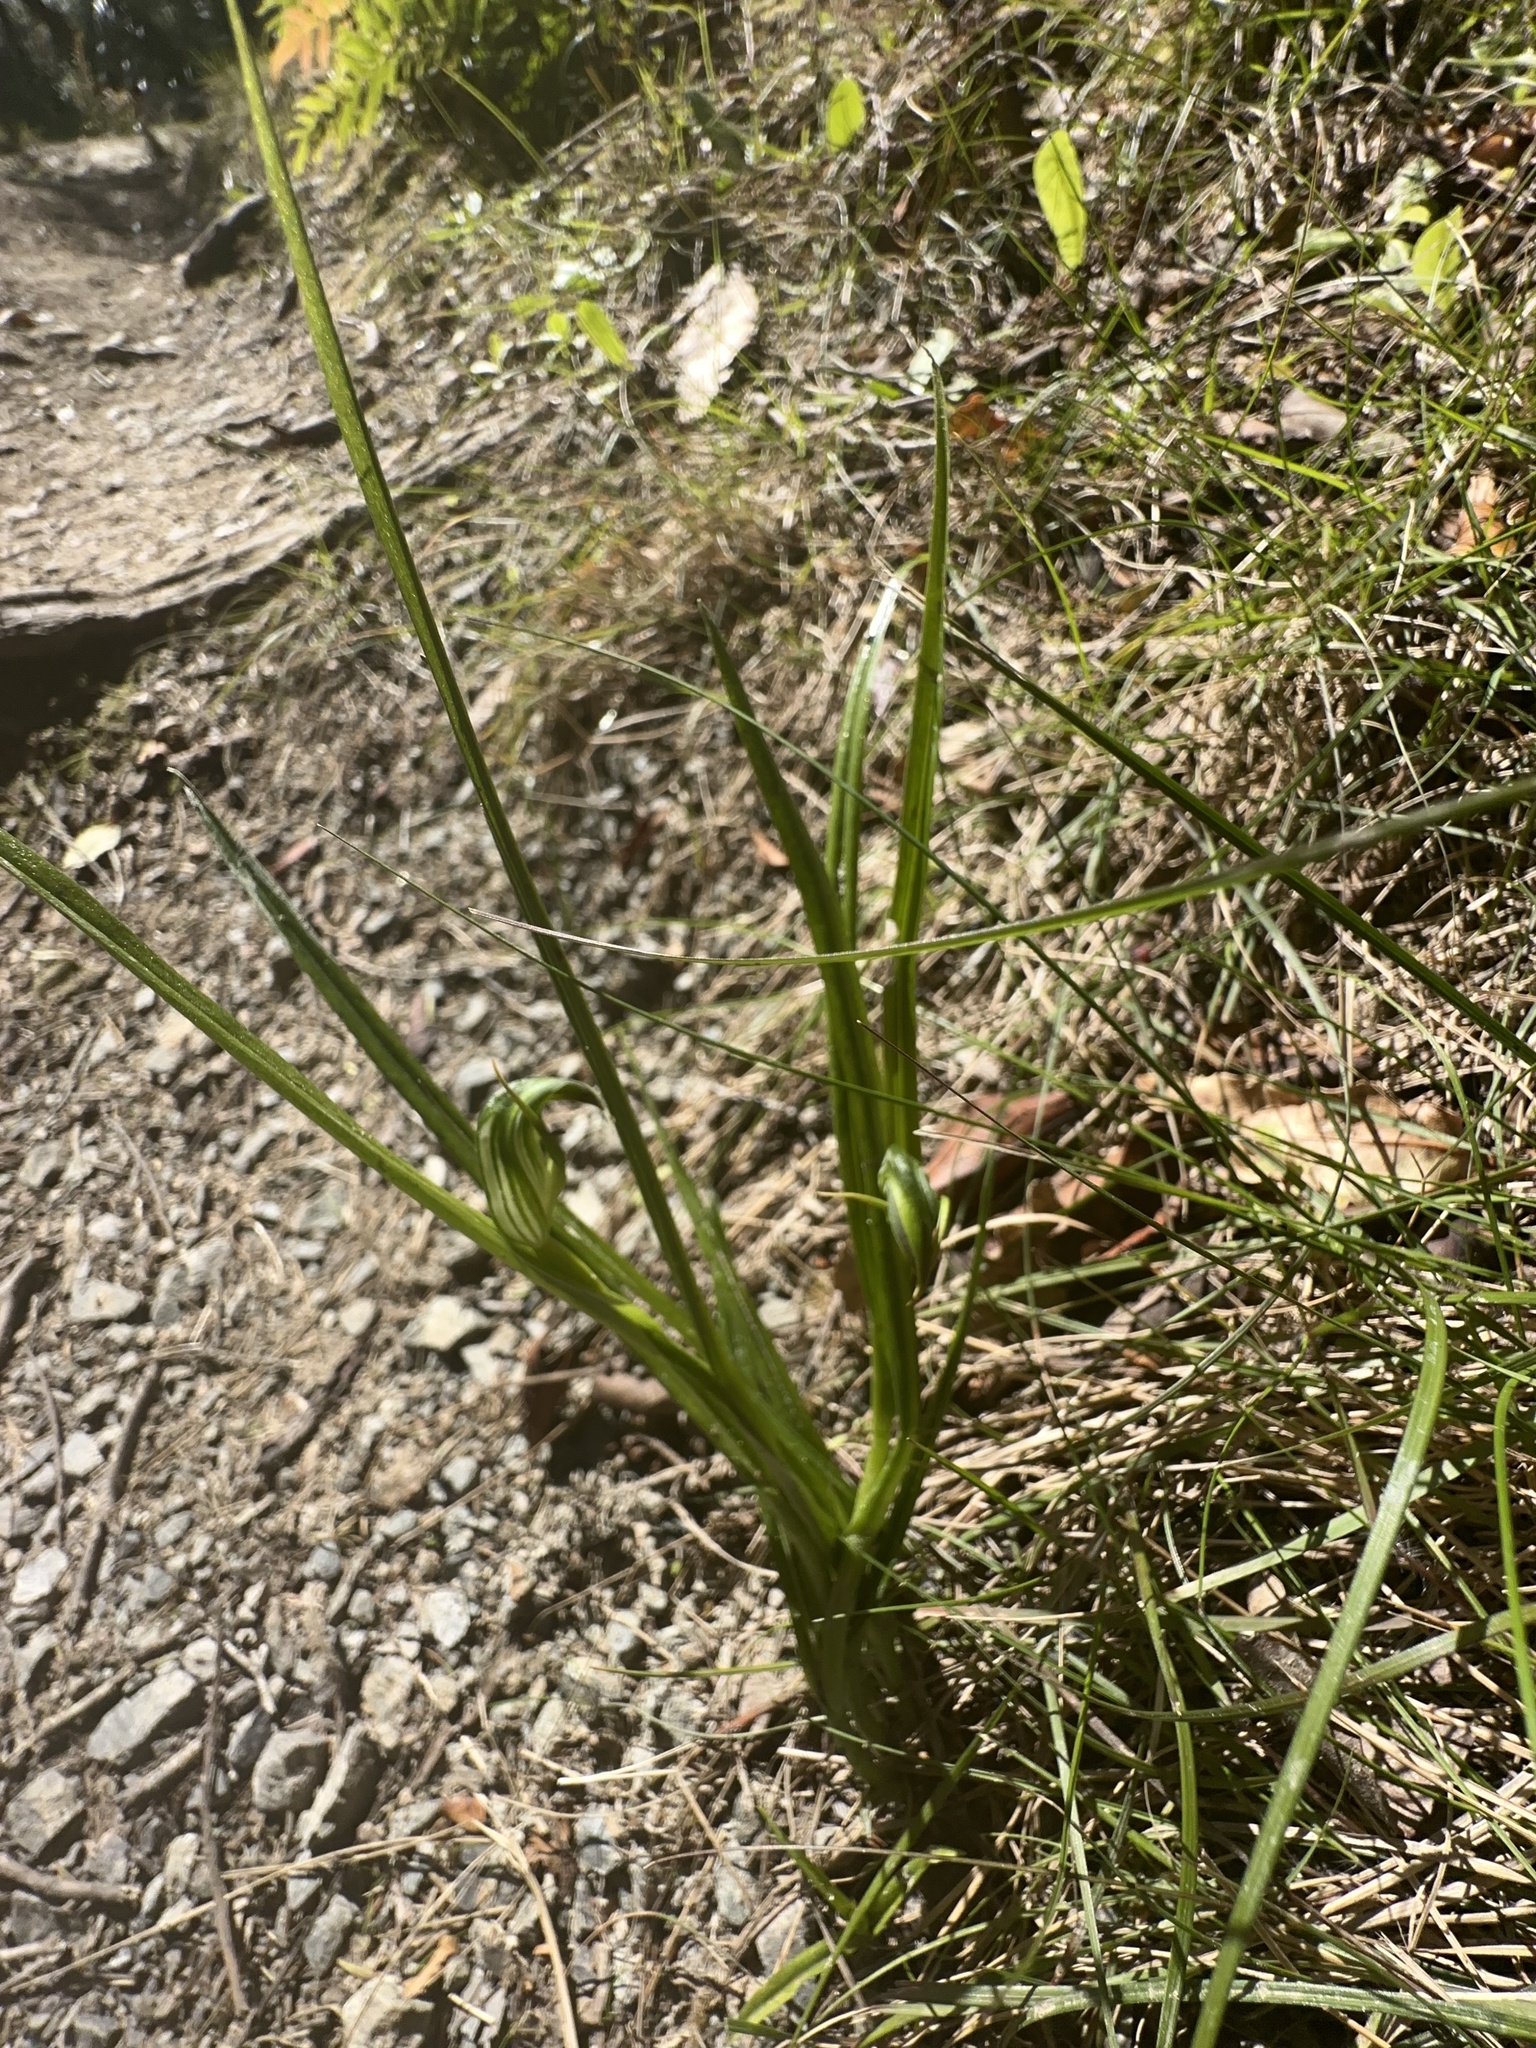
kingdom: Plantae
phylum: Tracheophyta
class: Liliopsida
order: Asparagales
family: Orchidaceae
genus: Pterostylis
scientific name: Pterostylis graminea
